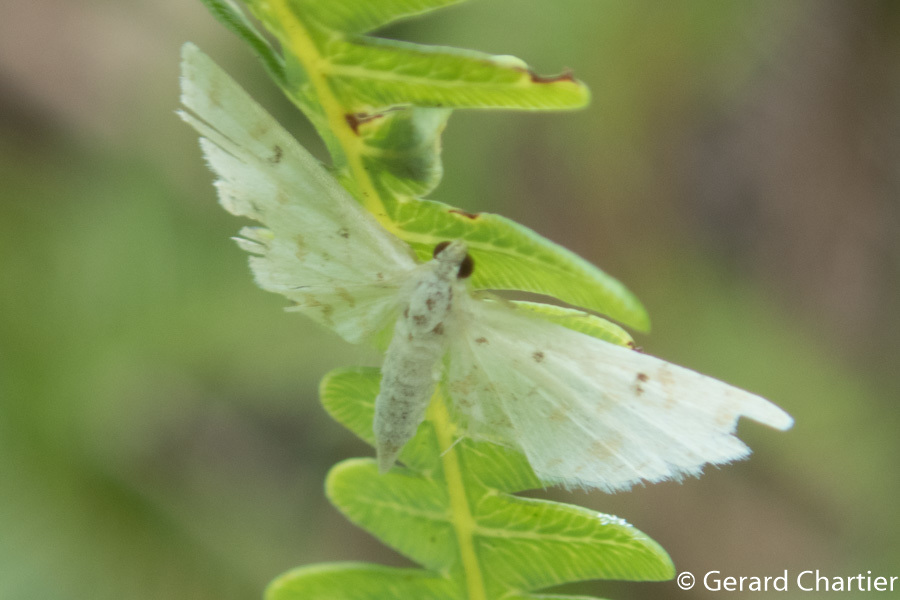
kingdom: Animalia
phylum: Arthropoda
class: Insecta
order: Lepidoptera
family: Crambidae
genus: Parapoynx
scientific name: Parapoynx stagnalis
